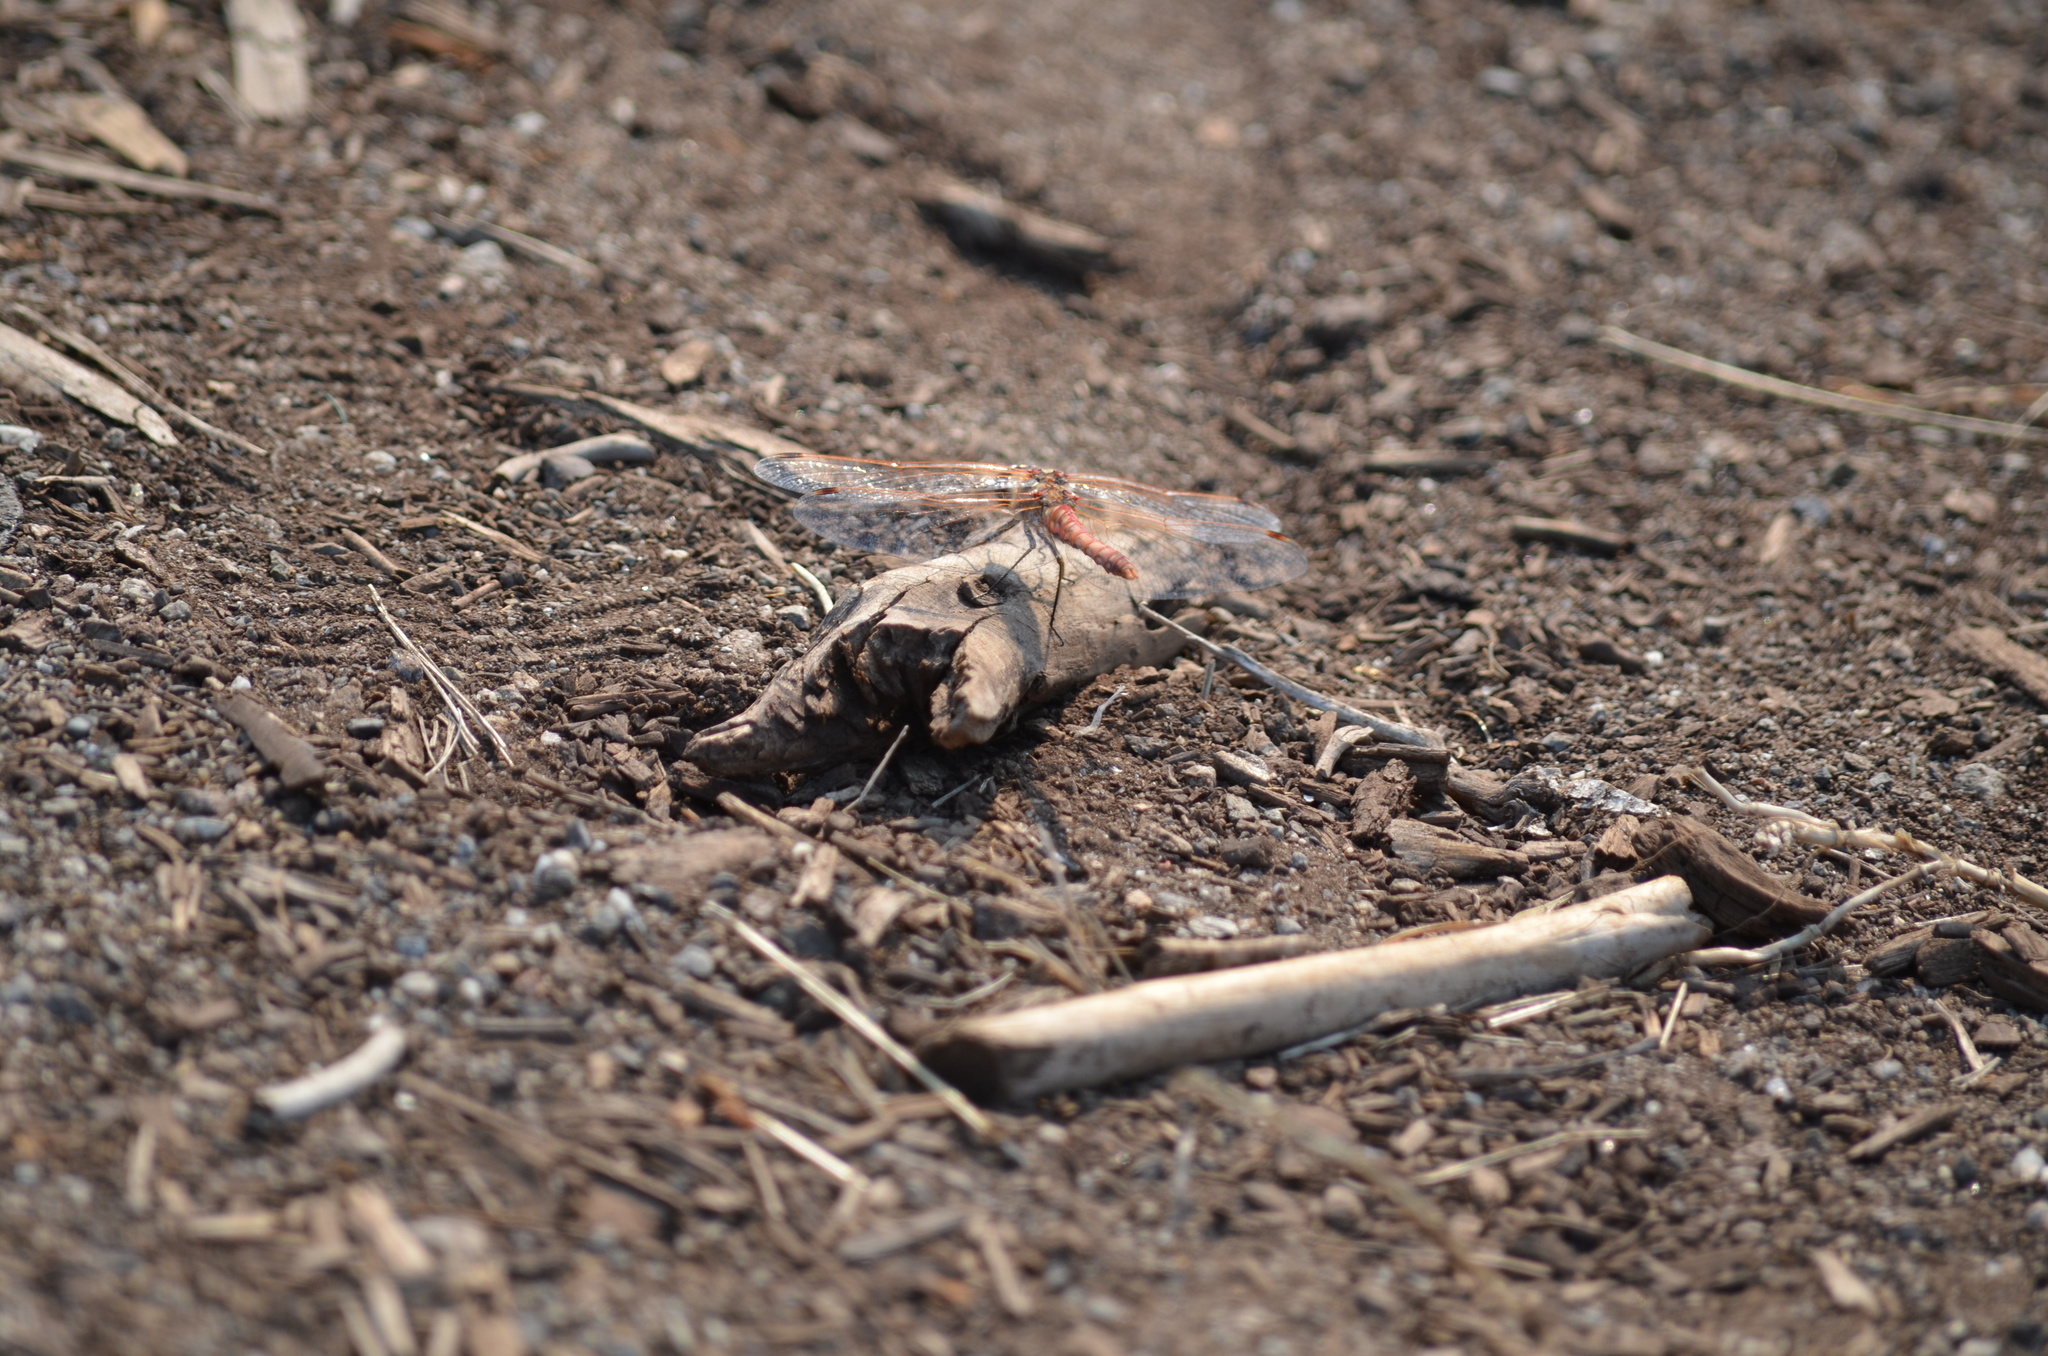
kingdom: Animalia
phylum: Arthropoda
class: Insecta
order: Odonata
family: Libellulidae
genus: Sympetrum
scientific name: Sympetrum corruptum
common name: Variegated meadowhawk
